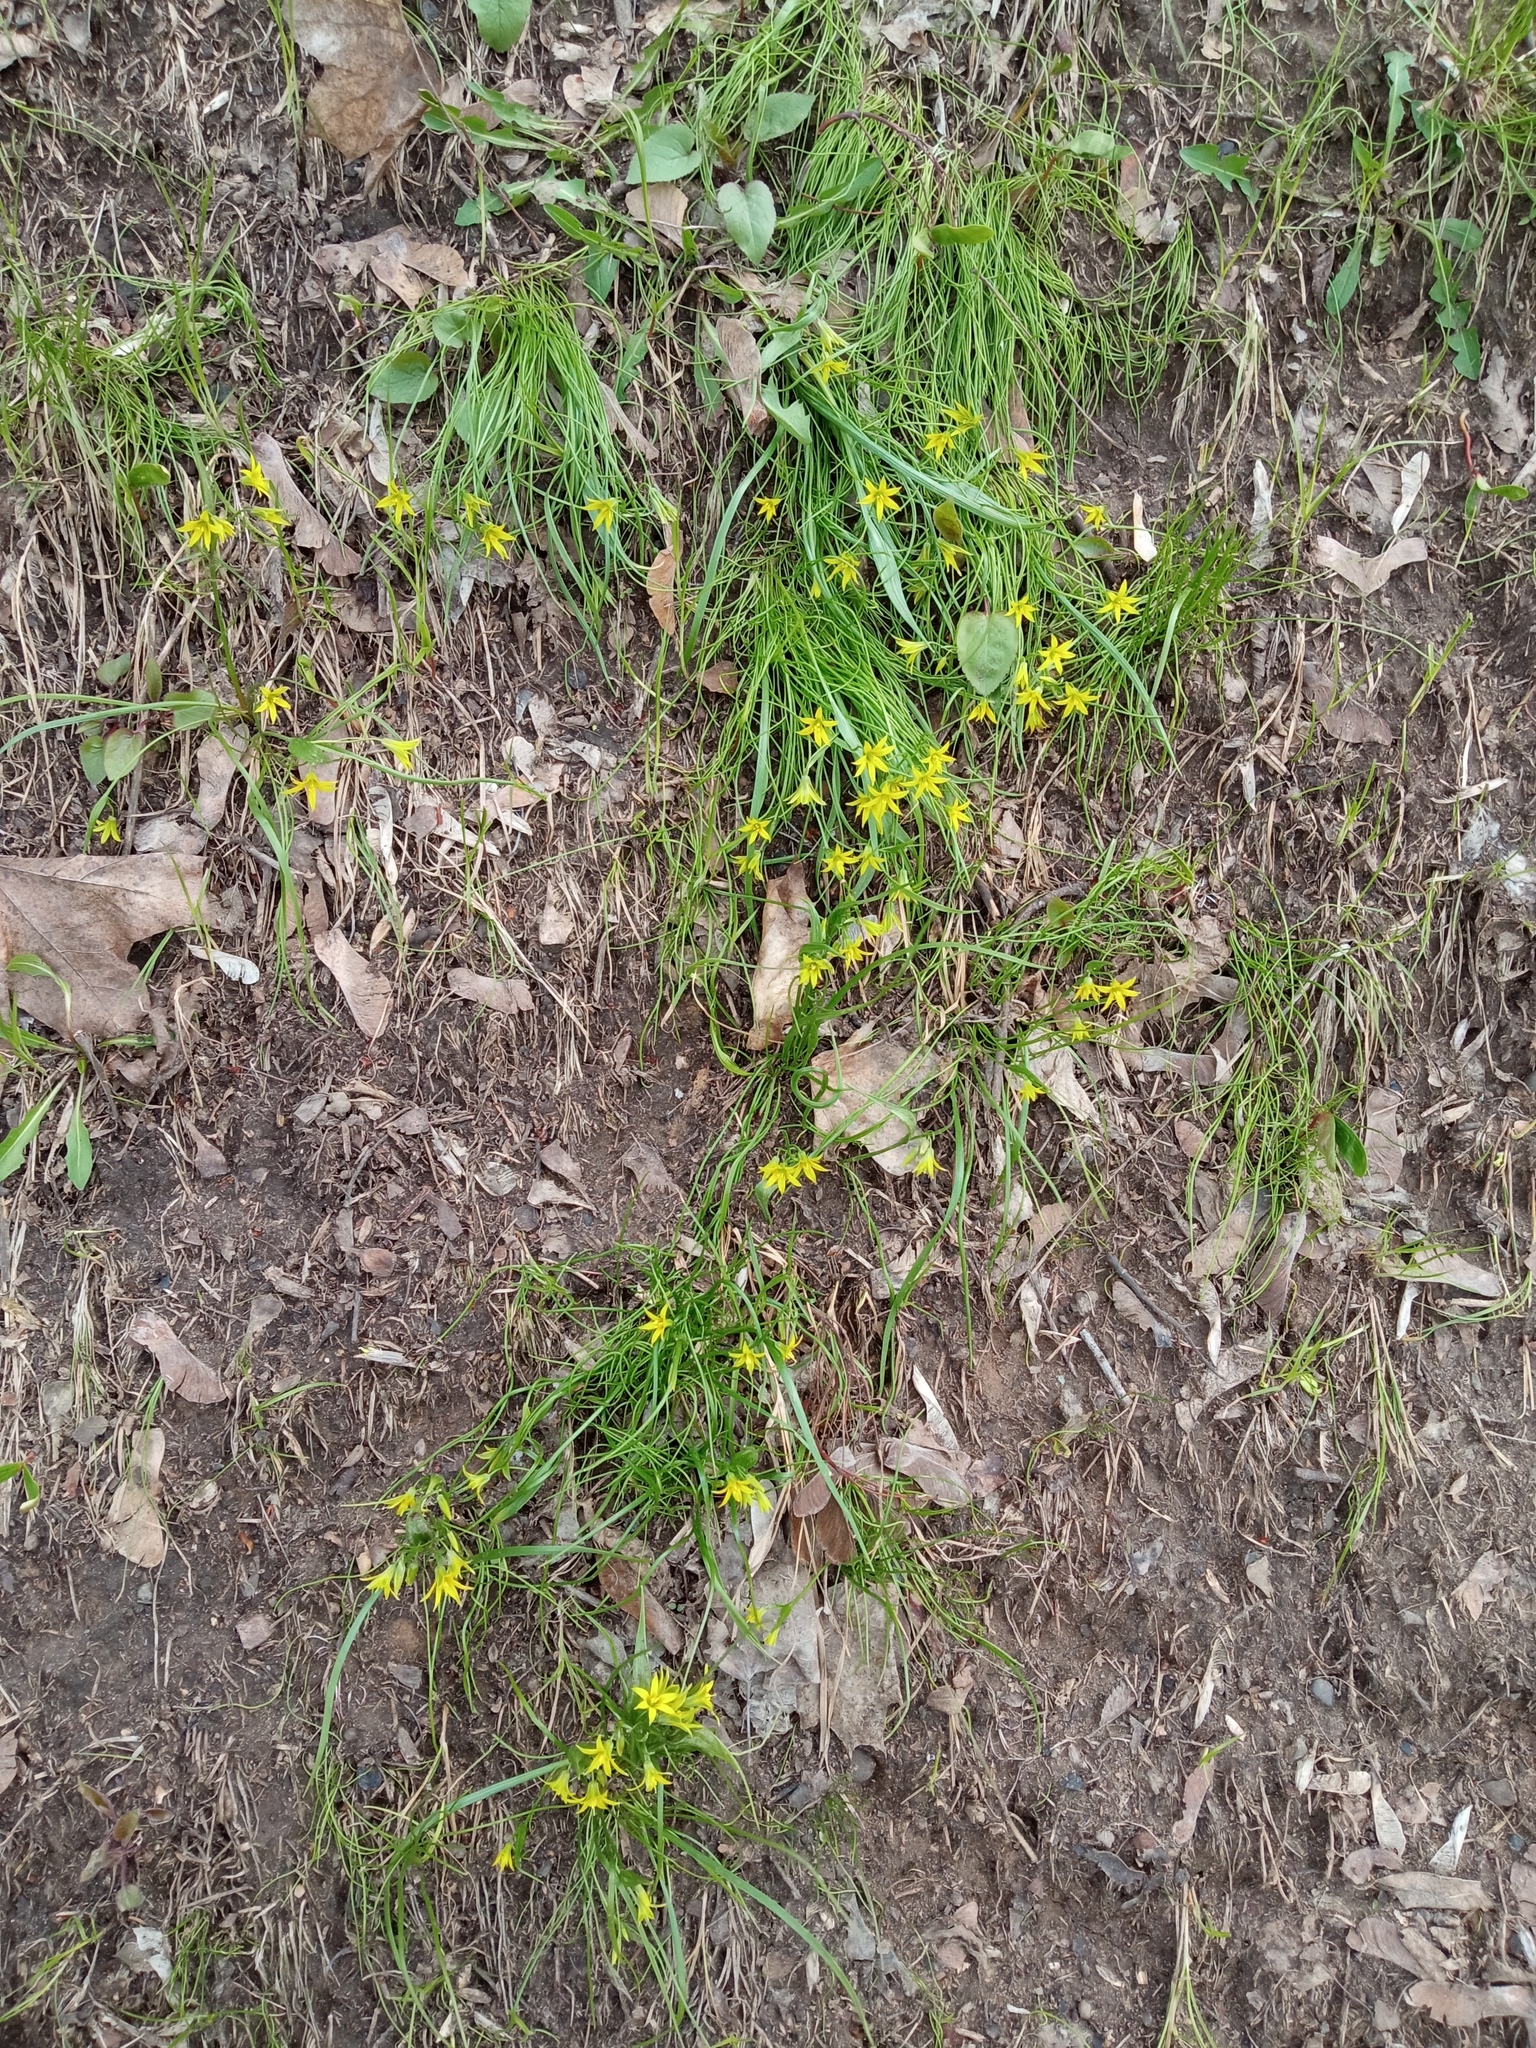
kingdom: Plantae
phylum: Tracheophyta
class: Liliopsida
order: Liliales
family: Liliaceae
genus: Gagea
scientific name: Gagea minima
